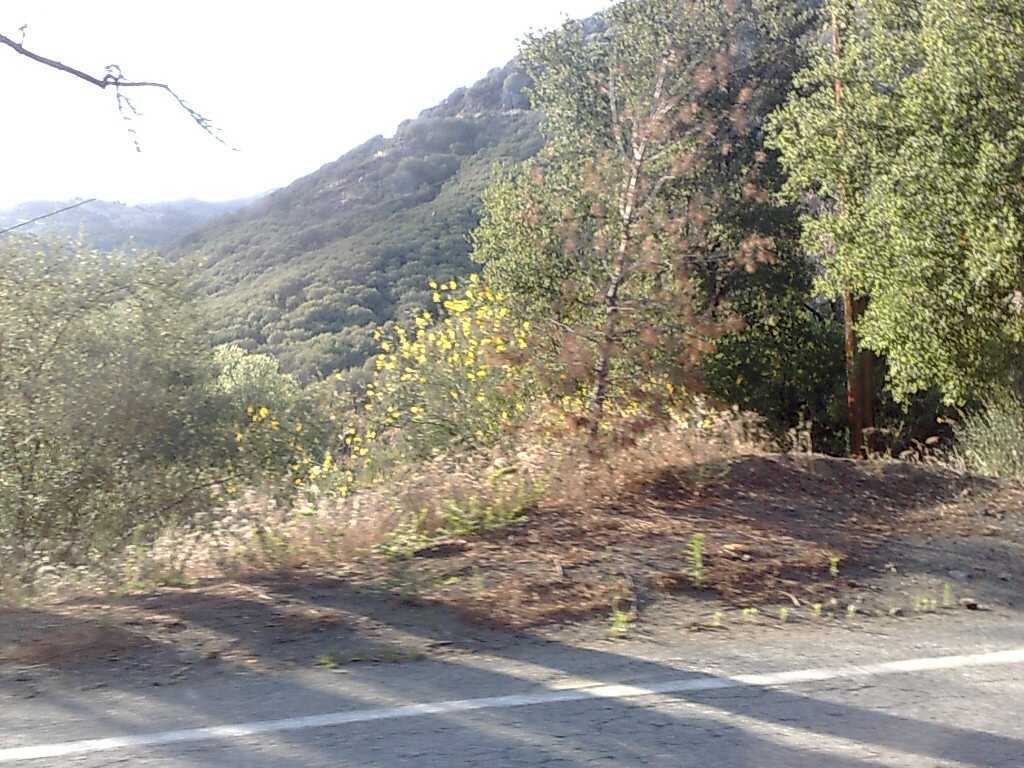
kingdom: Plantae
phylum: Tracheophyta
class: Magnoliopsida
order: Fabales
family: Fabaceae
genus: Spartium
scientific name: Spartium junceum
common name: Spanish broom
